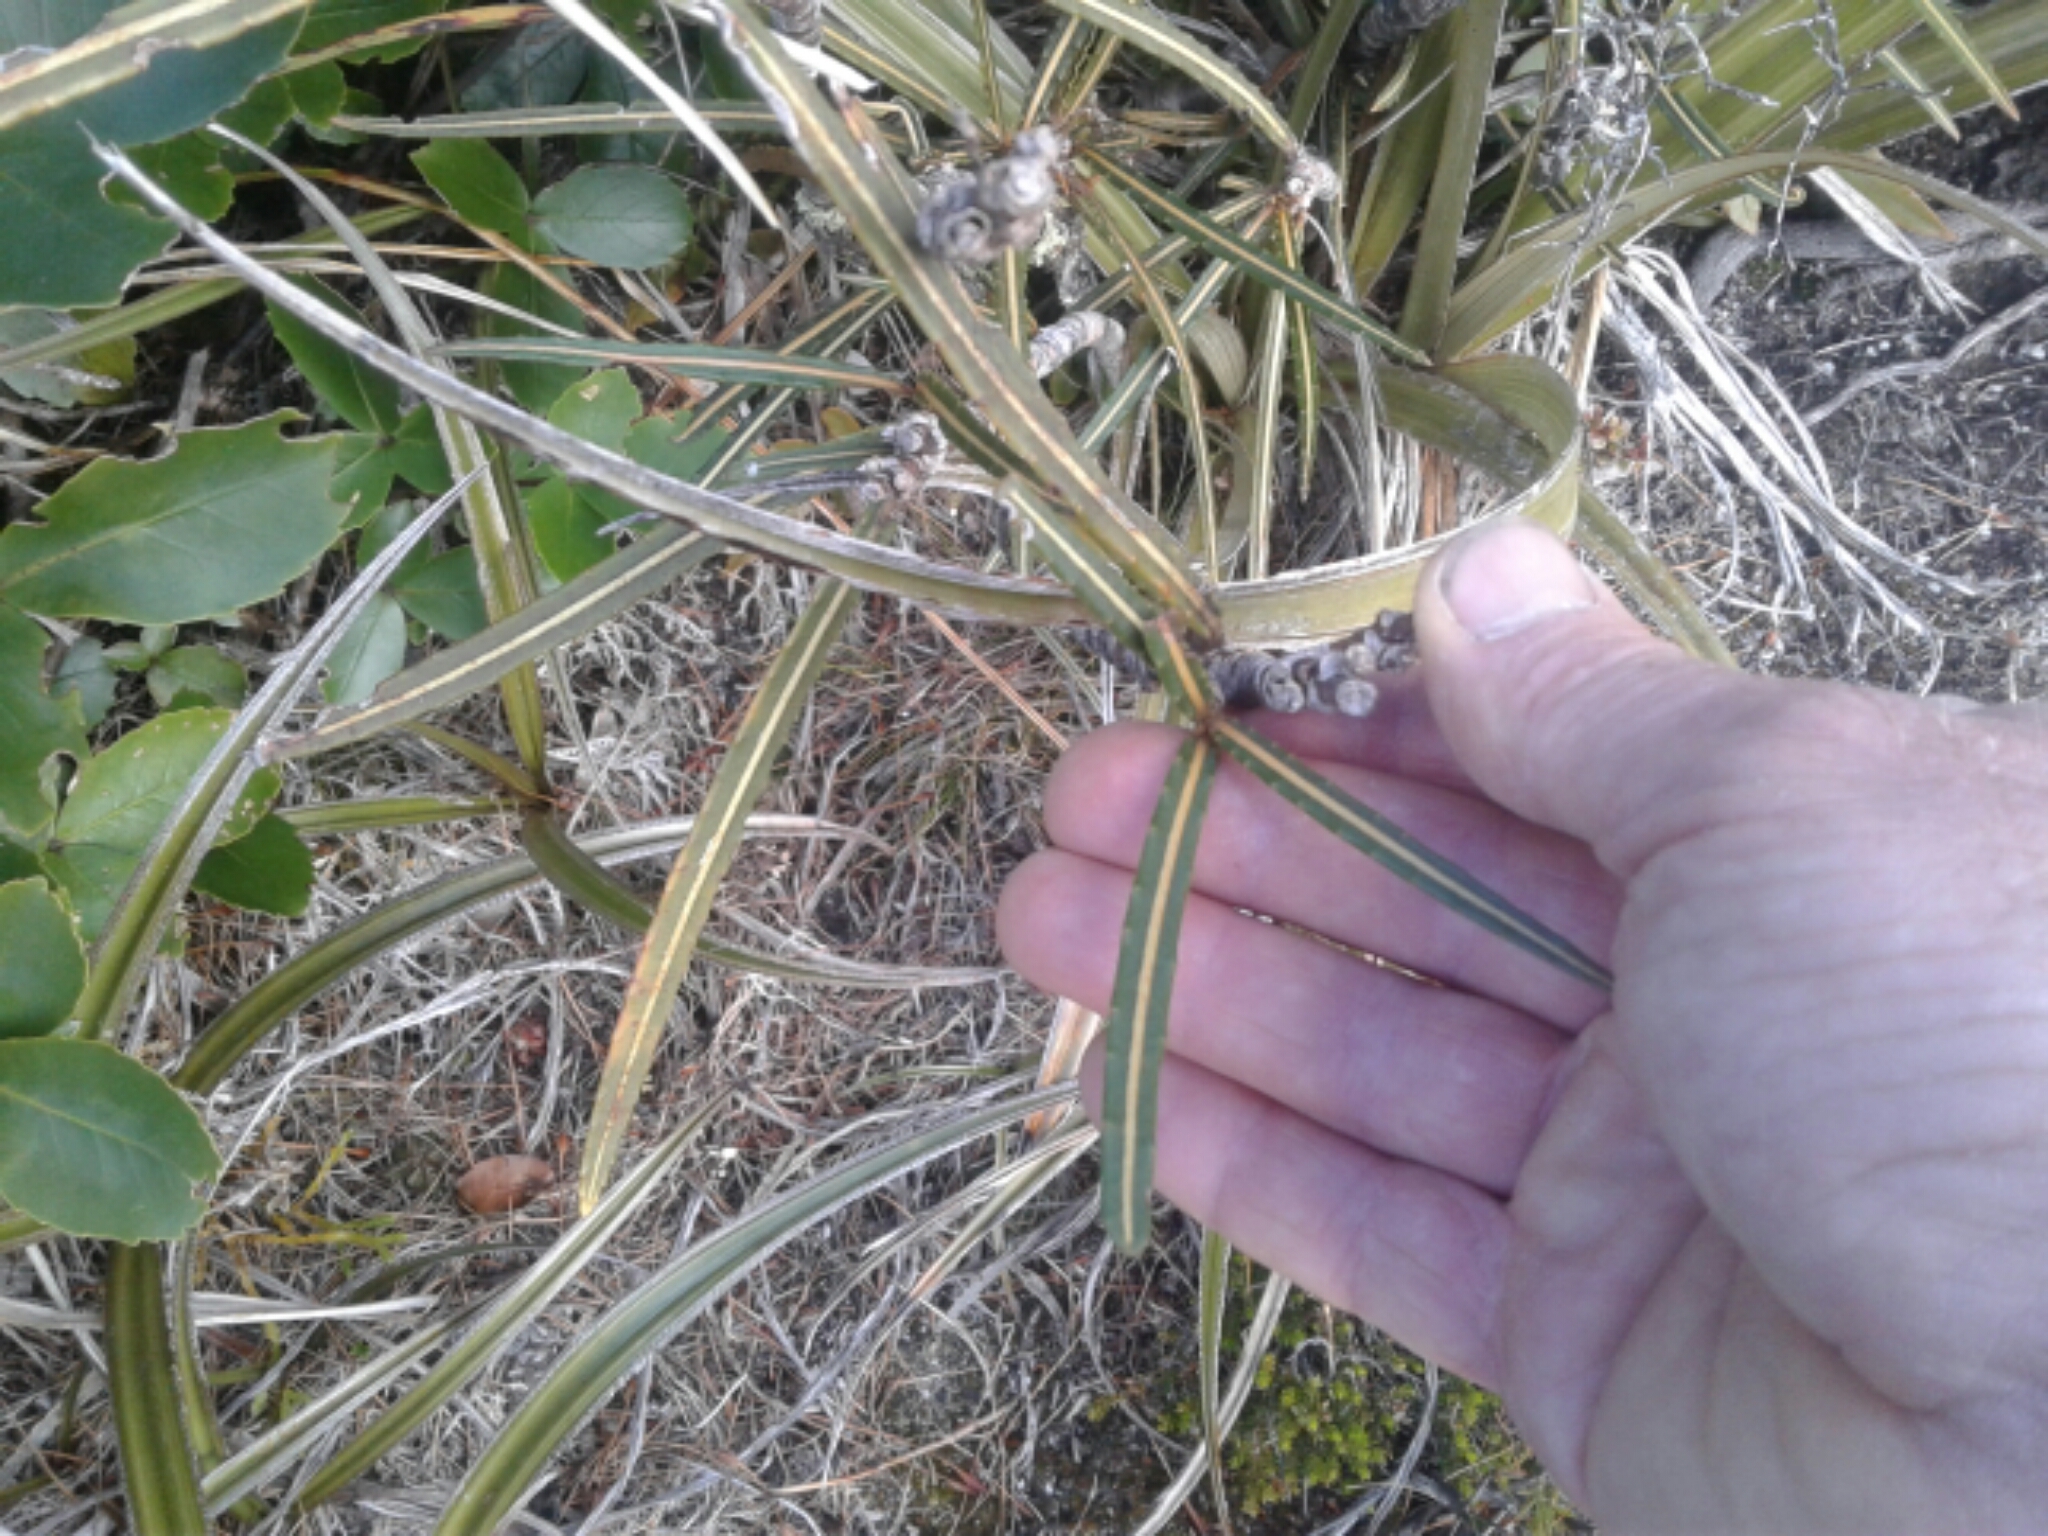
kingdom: Plantae
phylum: Tracheophyta
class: Magnoliopsida
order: Apiales
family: Araliaceae
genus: Pseudopanax
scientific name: Pseudopanax linearis
